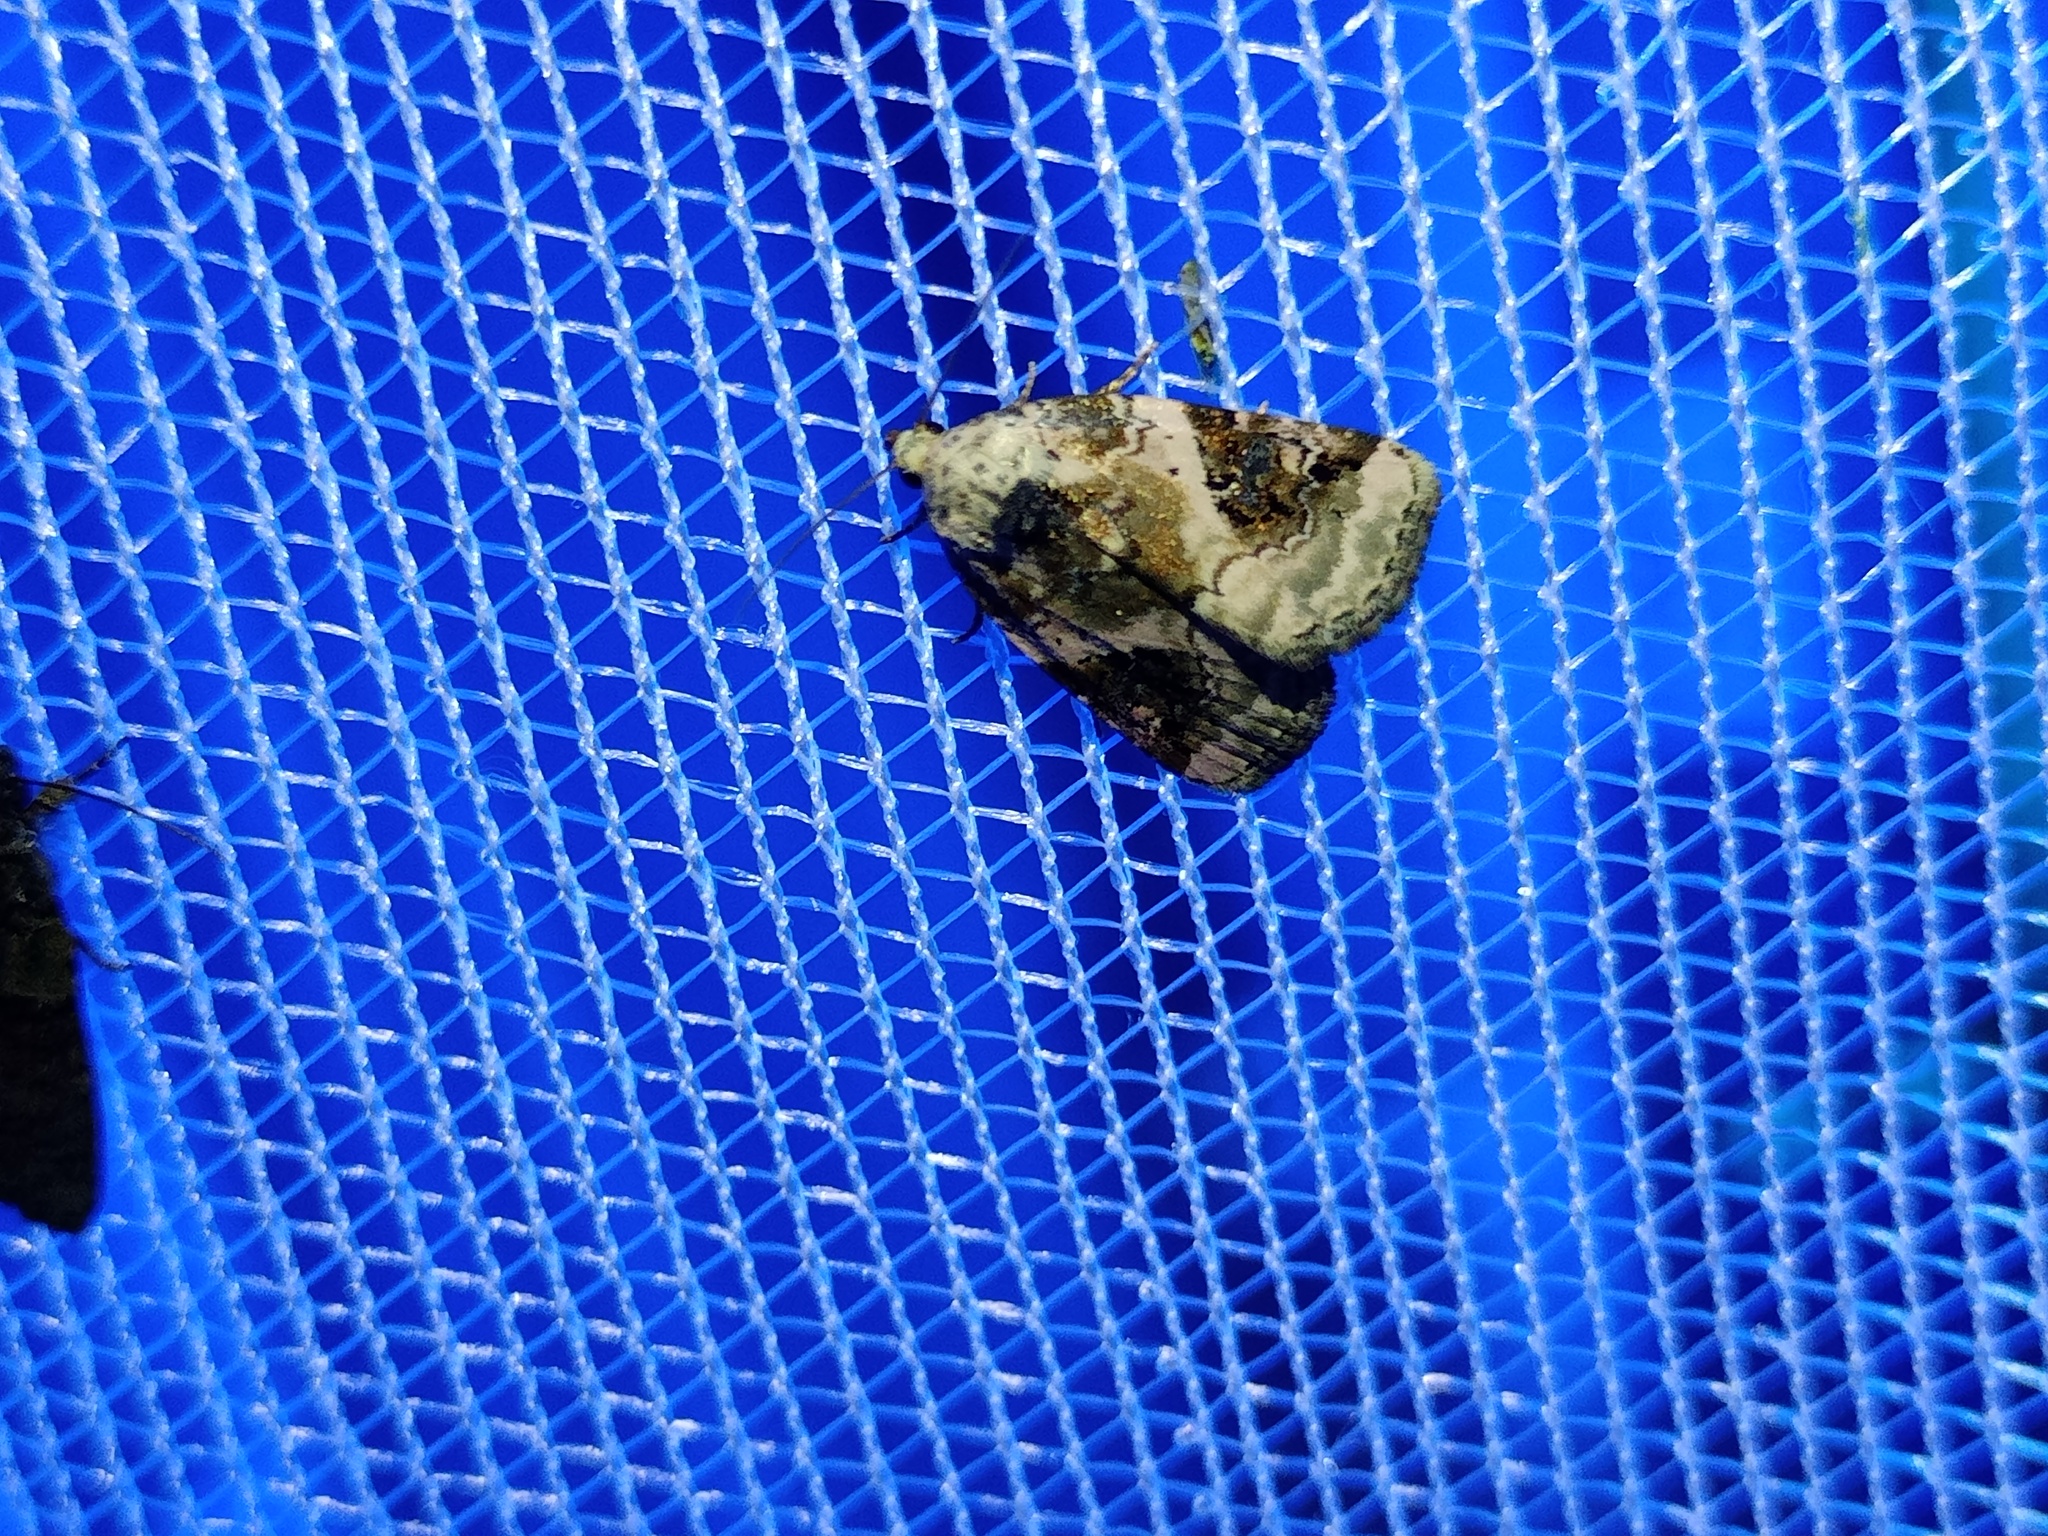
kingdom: Animalia
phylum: Arthropoda
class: Insecta
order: Lepidoptera
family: Noctuidae
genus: Pseudeustrotia
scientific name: Pseudeustrotia candidula
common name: Shining marbled
